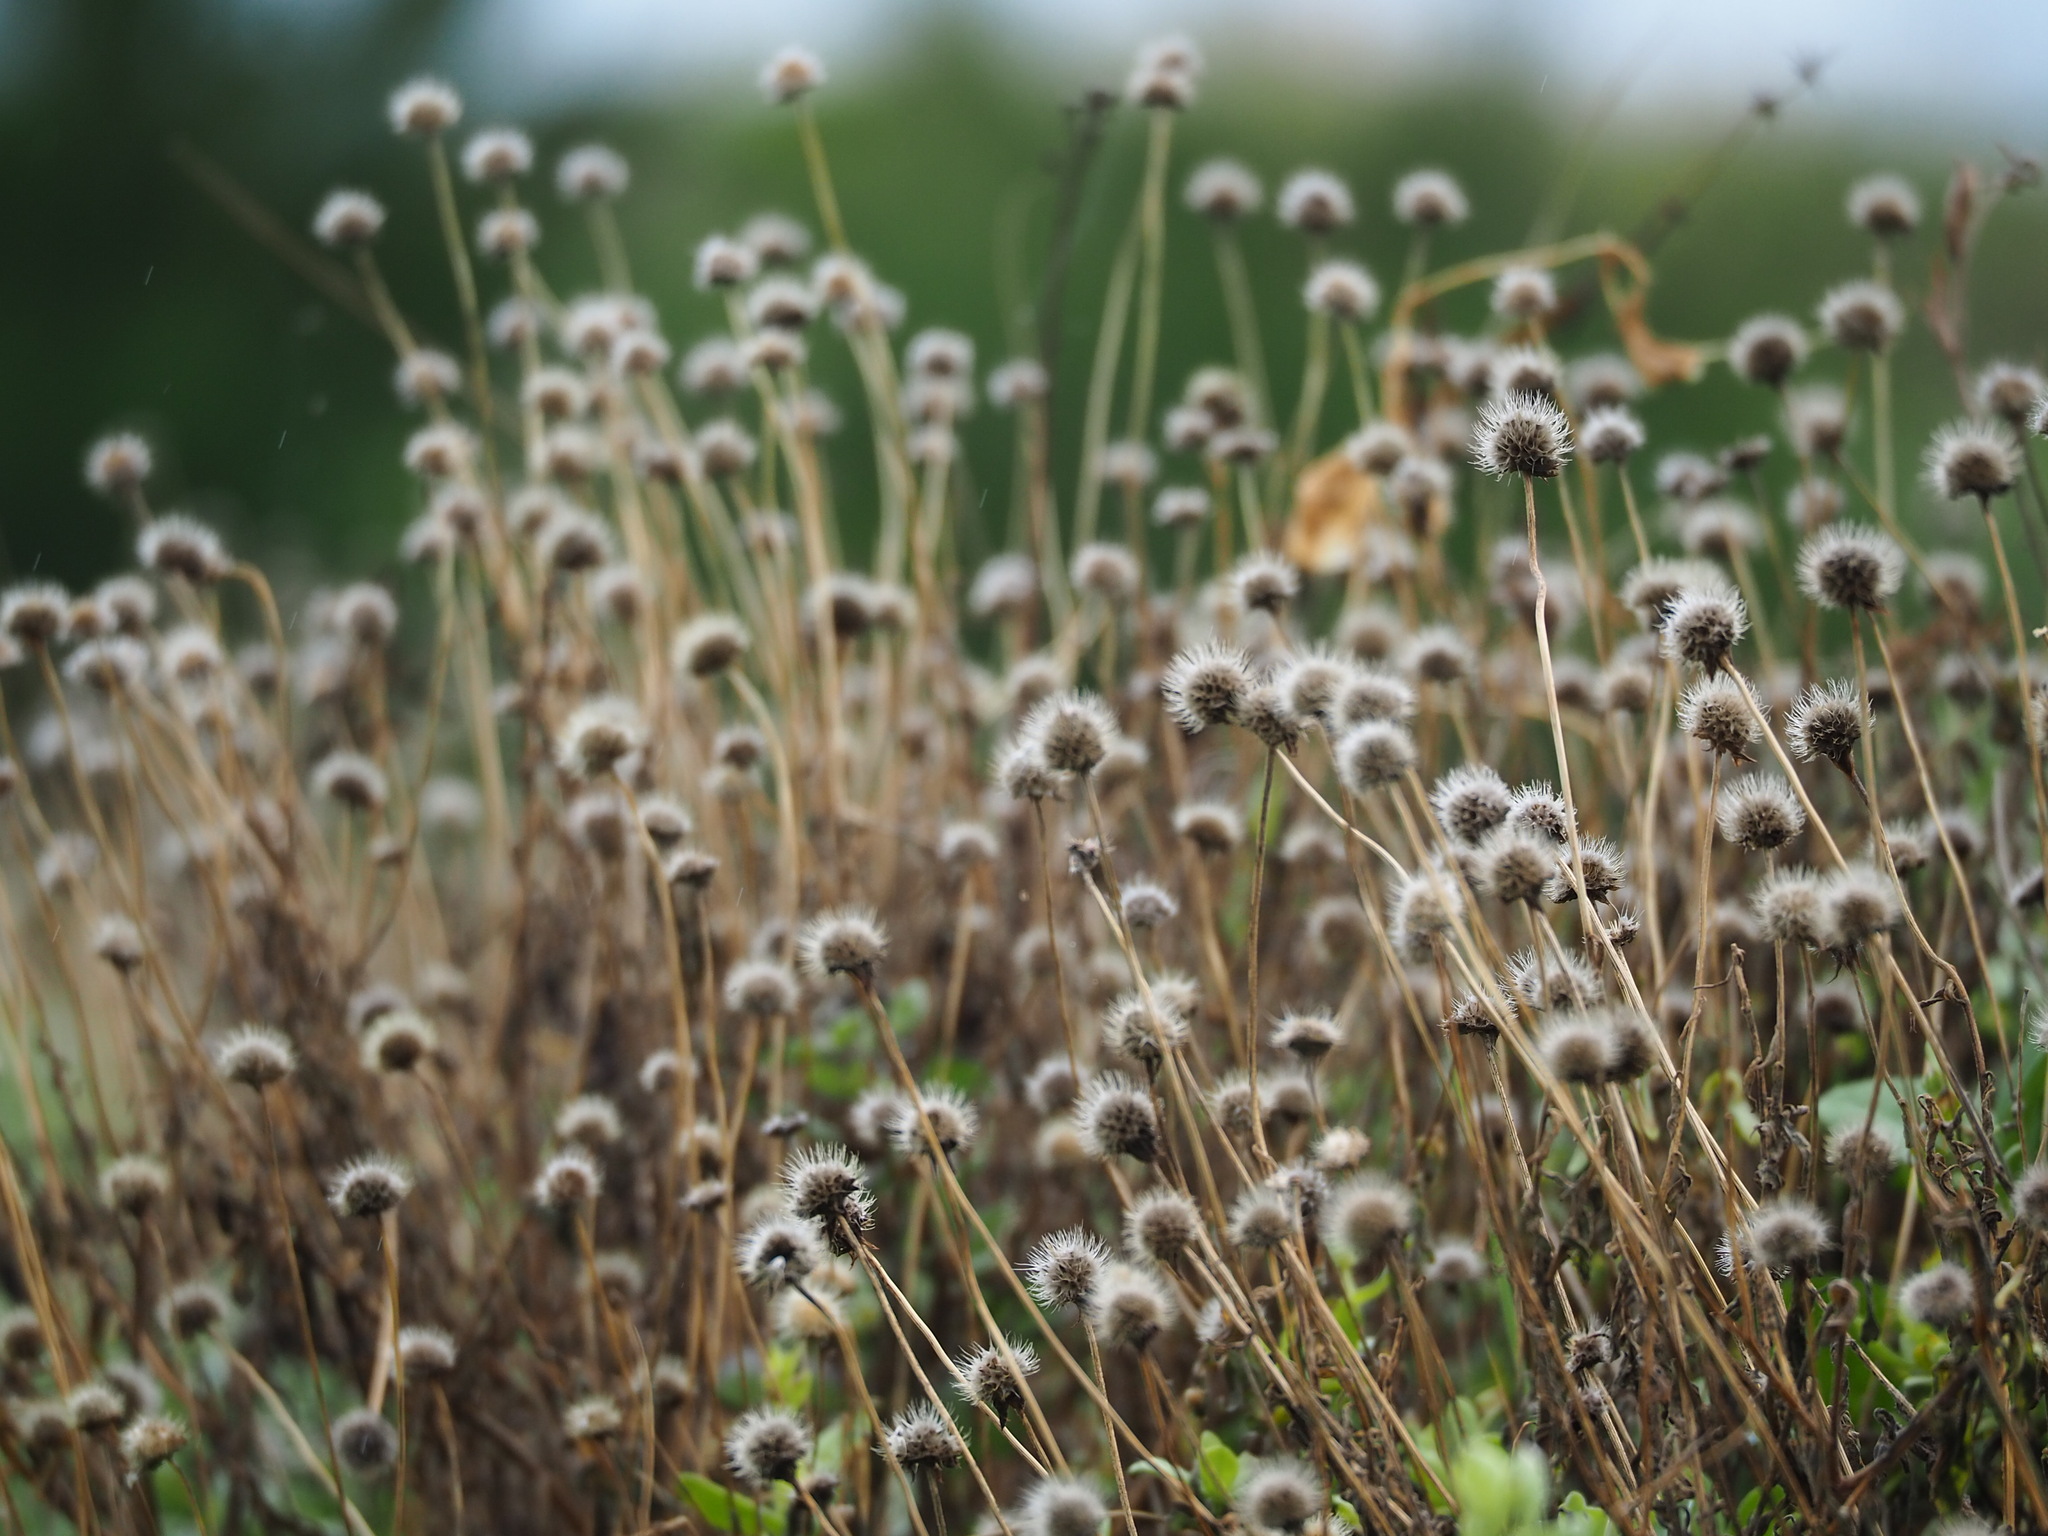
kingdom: Plantae
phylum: Tracheophyta
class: Magnoliopsida
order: Asterales
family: Asteraceae
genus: Gaillardia
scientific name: Gaillardia pulchella
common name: Firewheel
